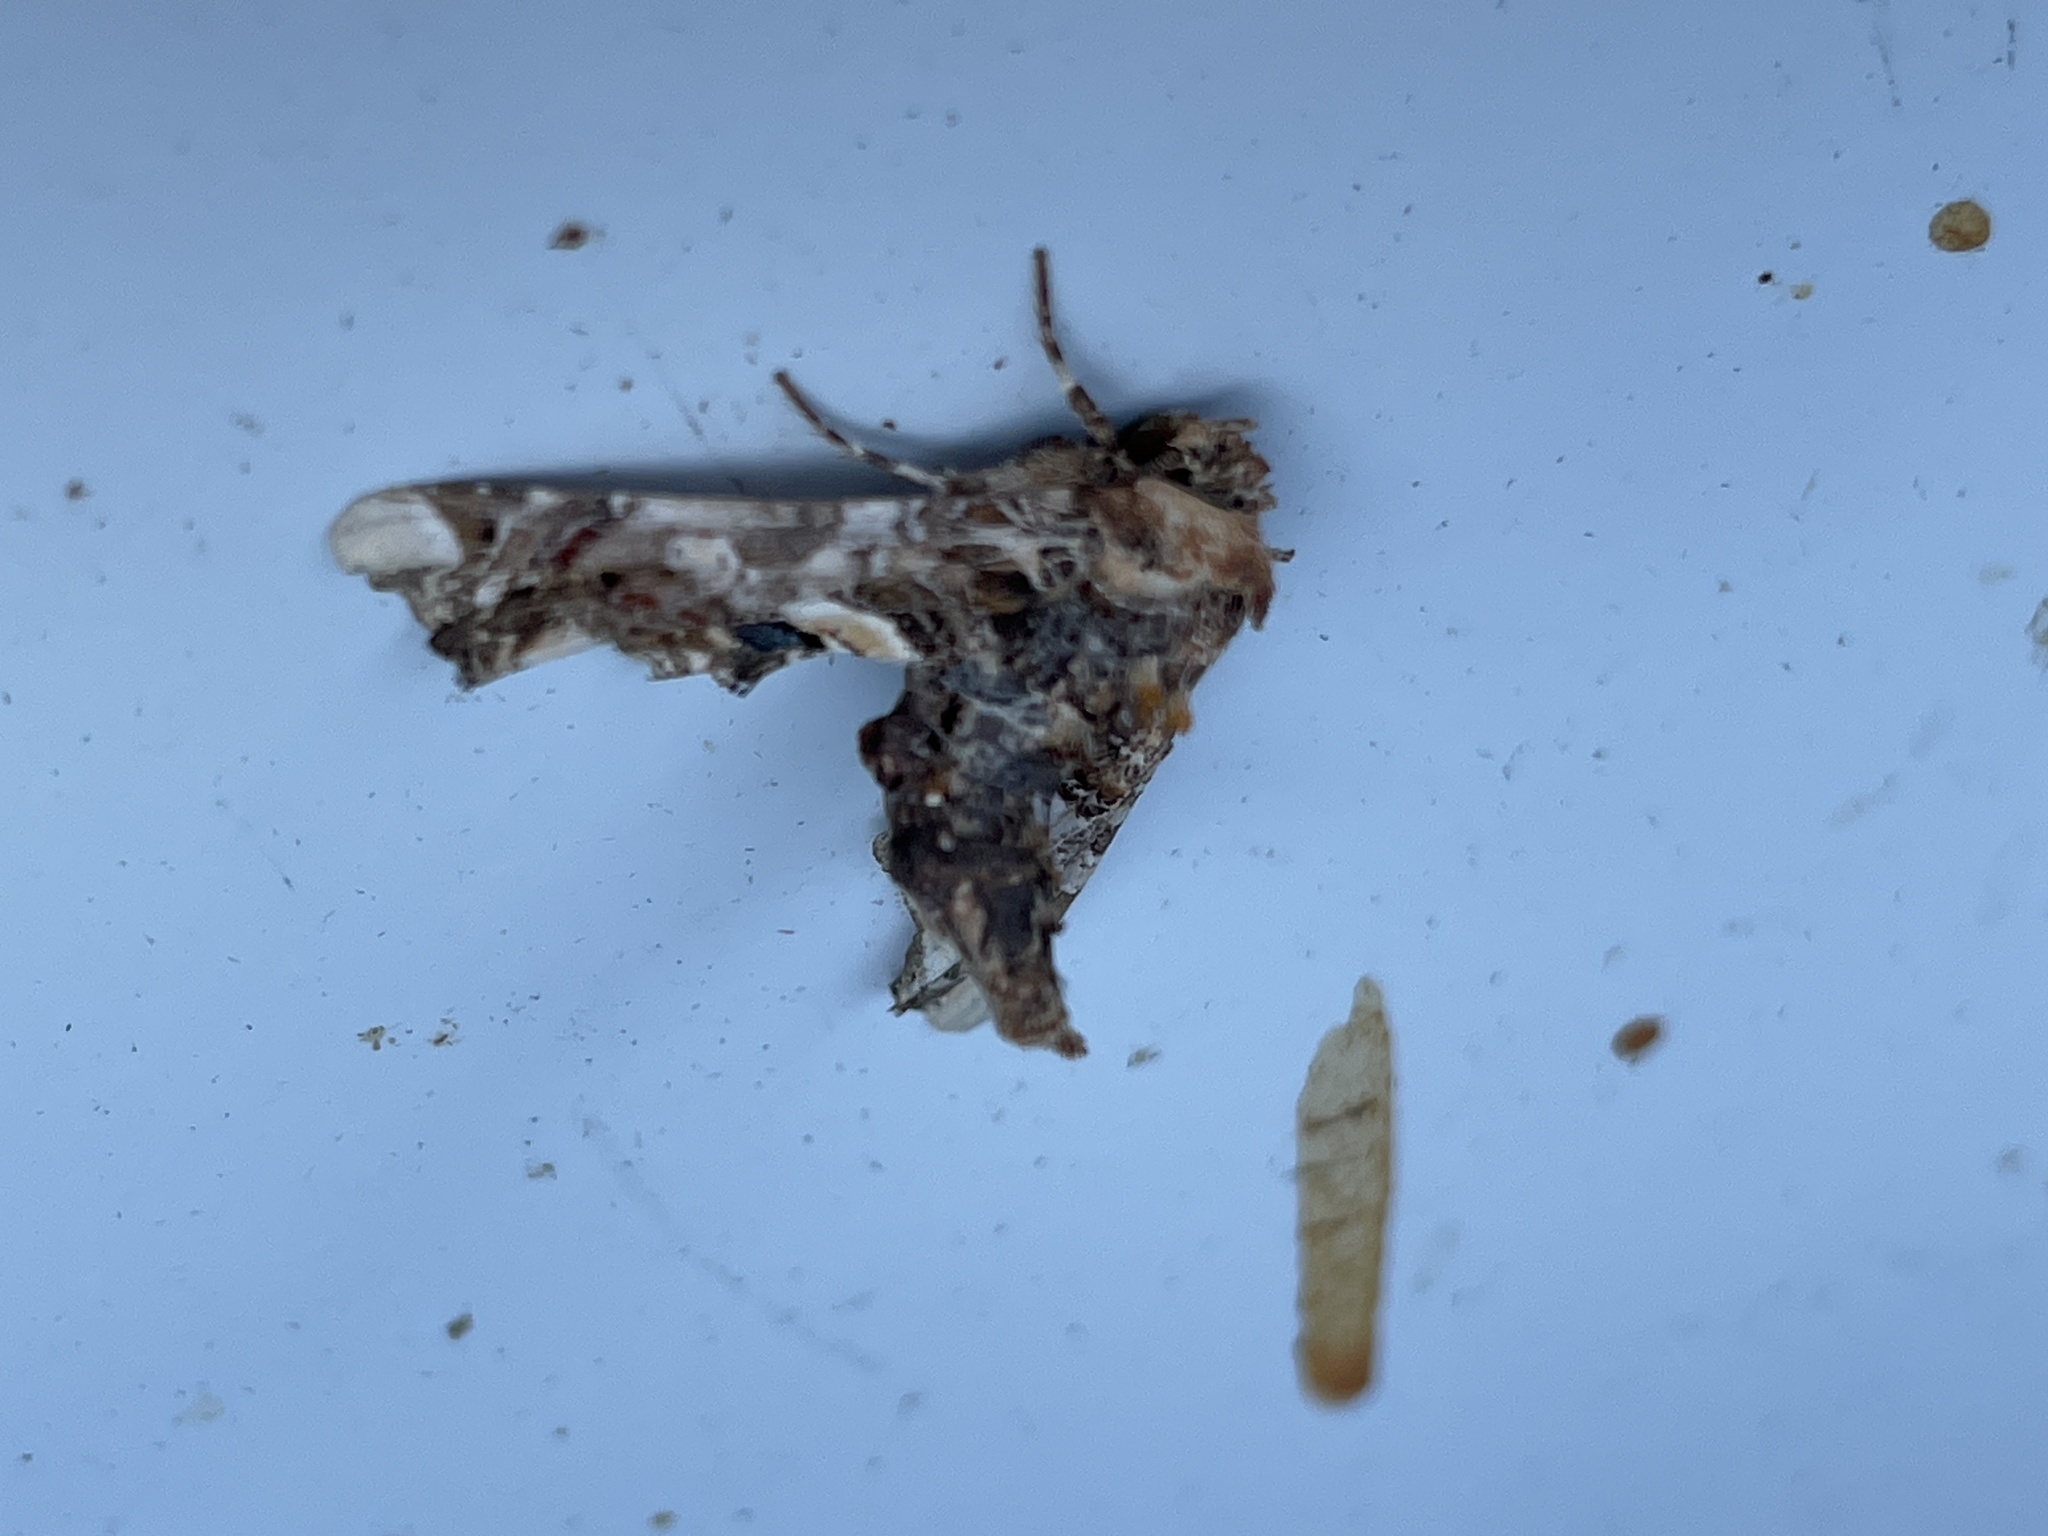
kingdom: Animalia
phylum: Arthropoda
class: Insecta
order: Lepidoptera
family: Euteliidae
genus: Eutelia
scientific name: Eutelia adulatrix
